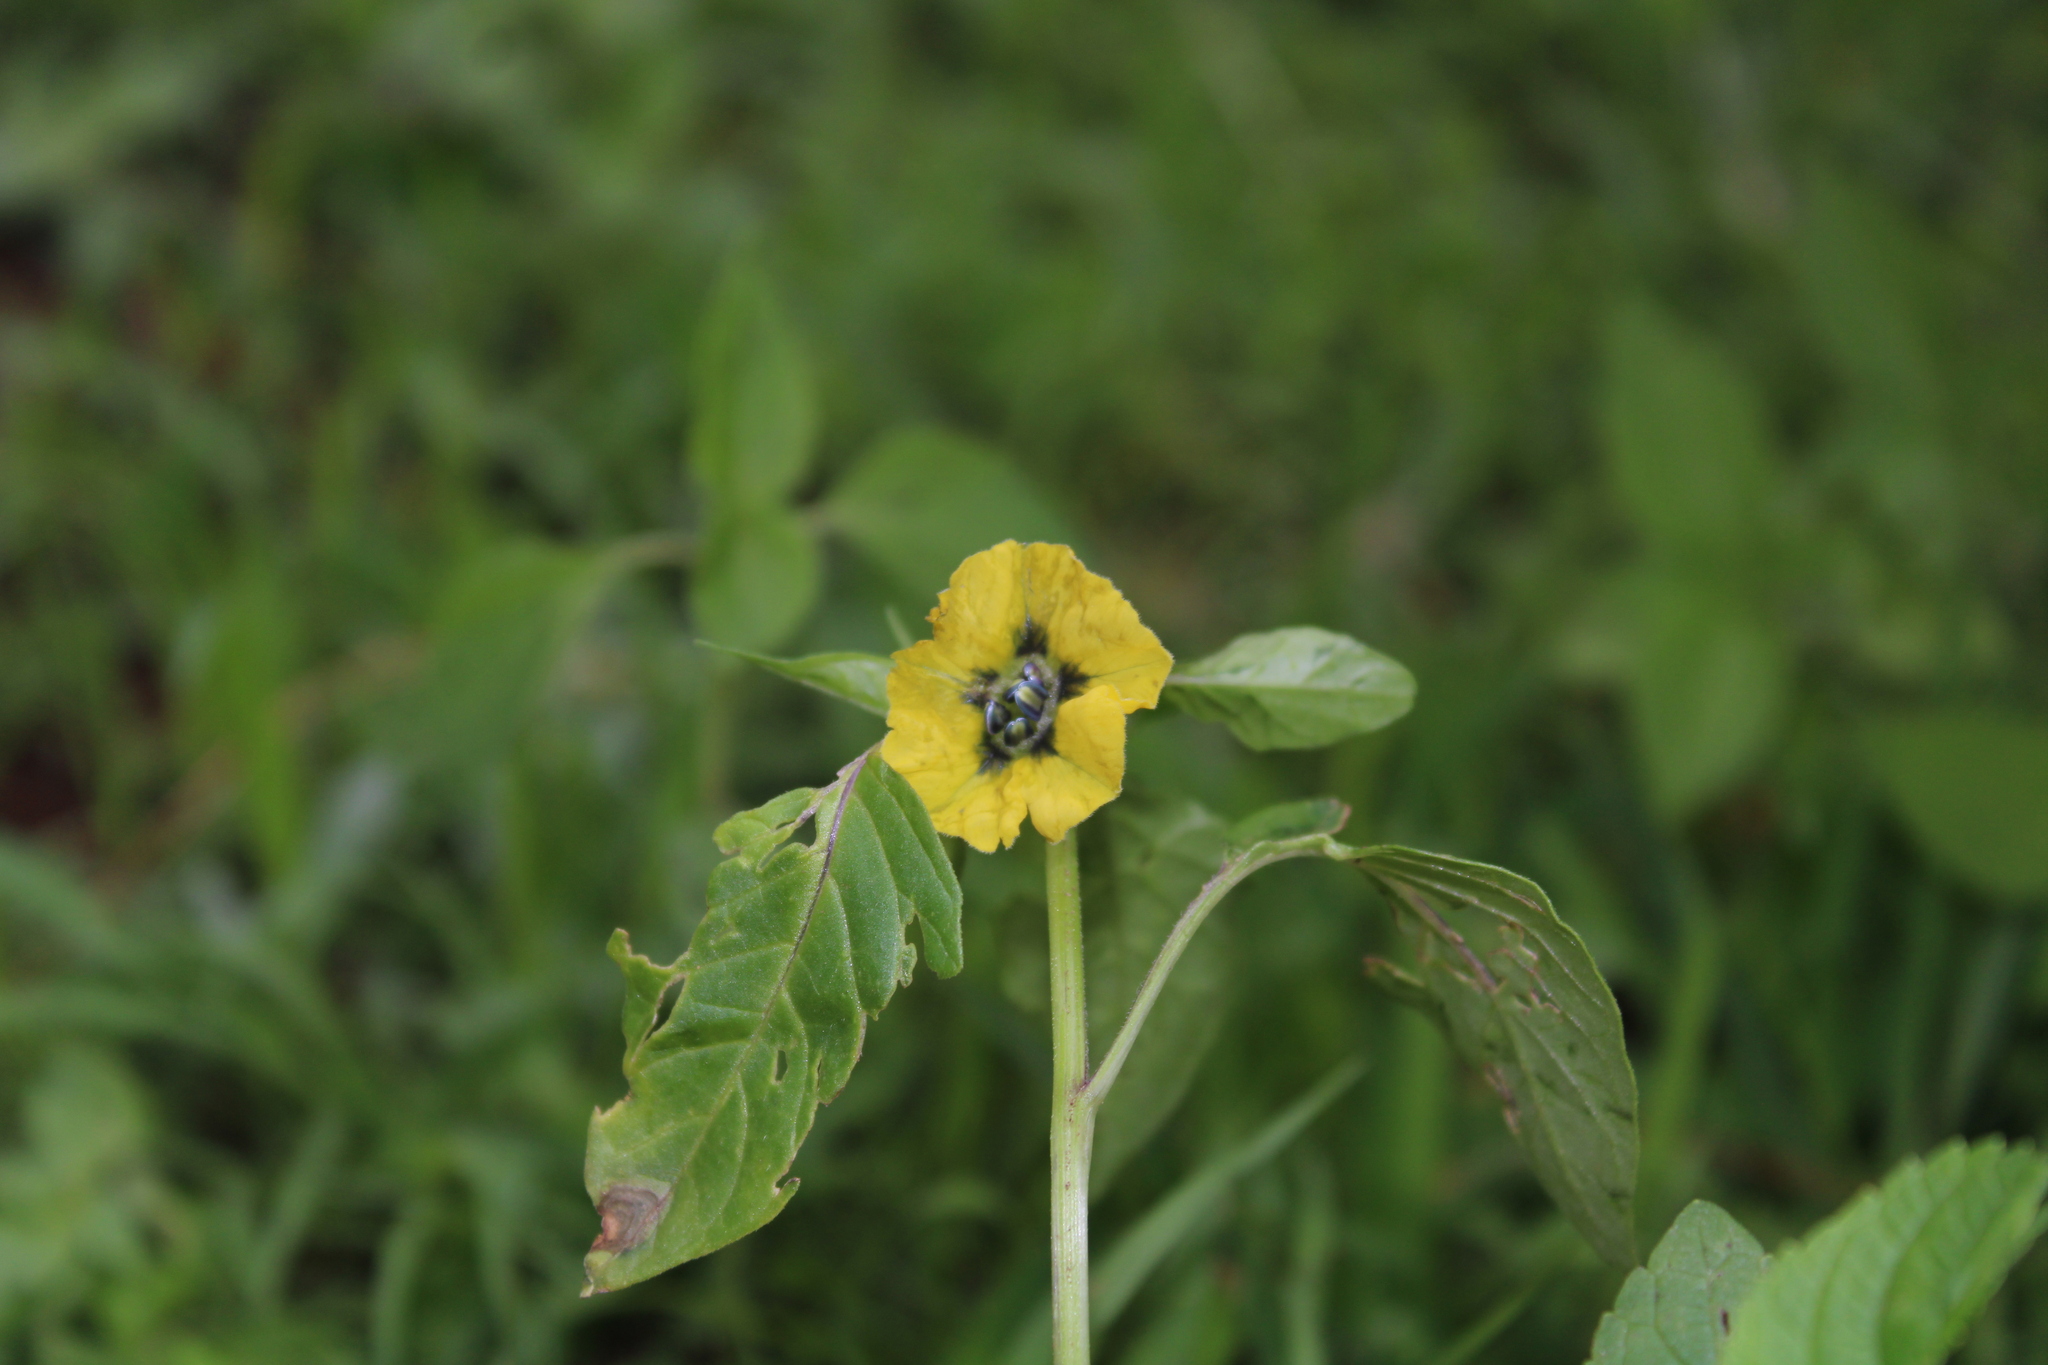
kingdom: Plantae
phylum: Tracheophyta
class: Magnoliopsida
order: Solanales
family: Solanaceae
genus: Physalis
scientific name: Physalis philadelphica
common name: Husk-tomato
